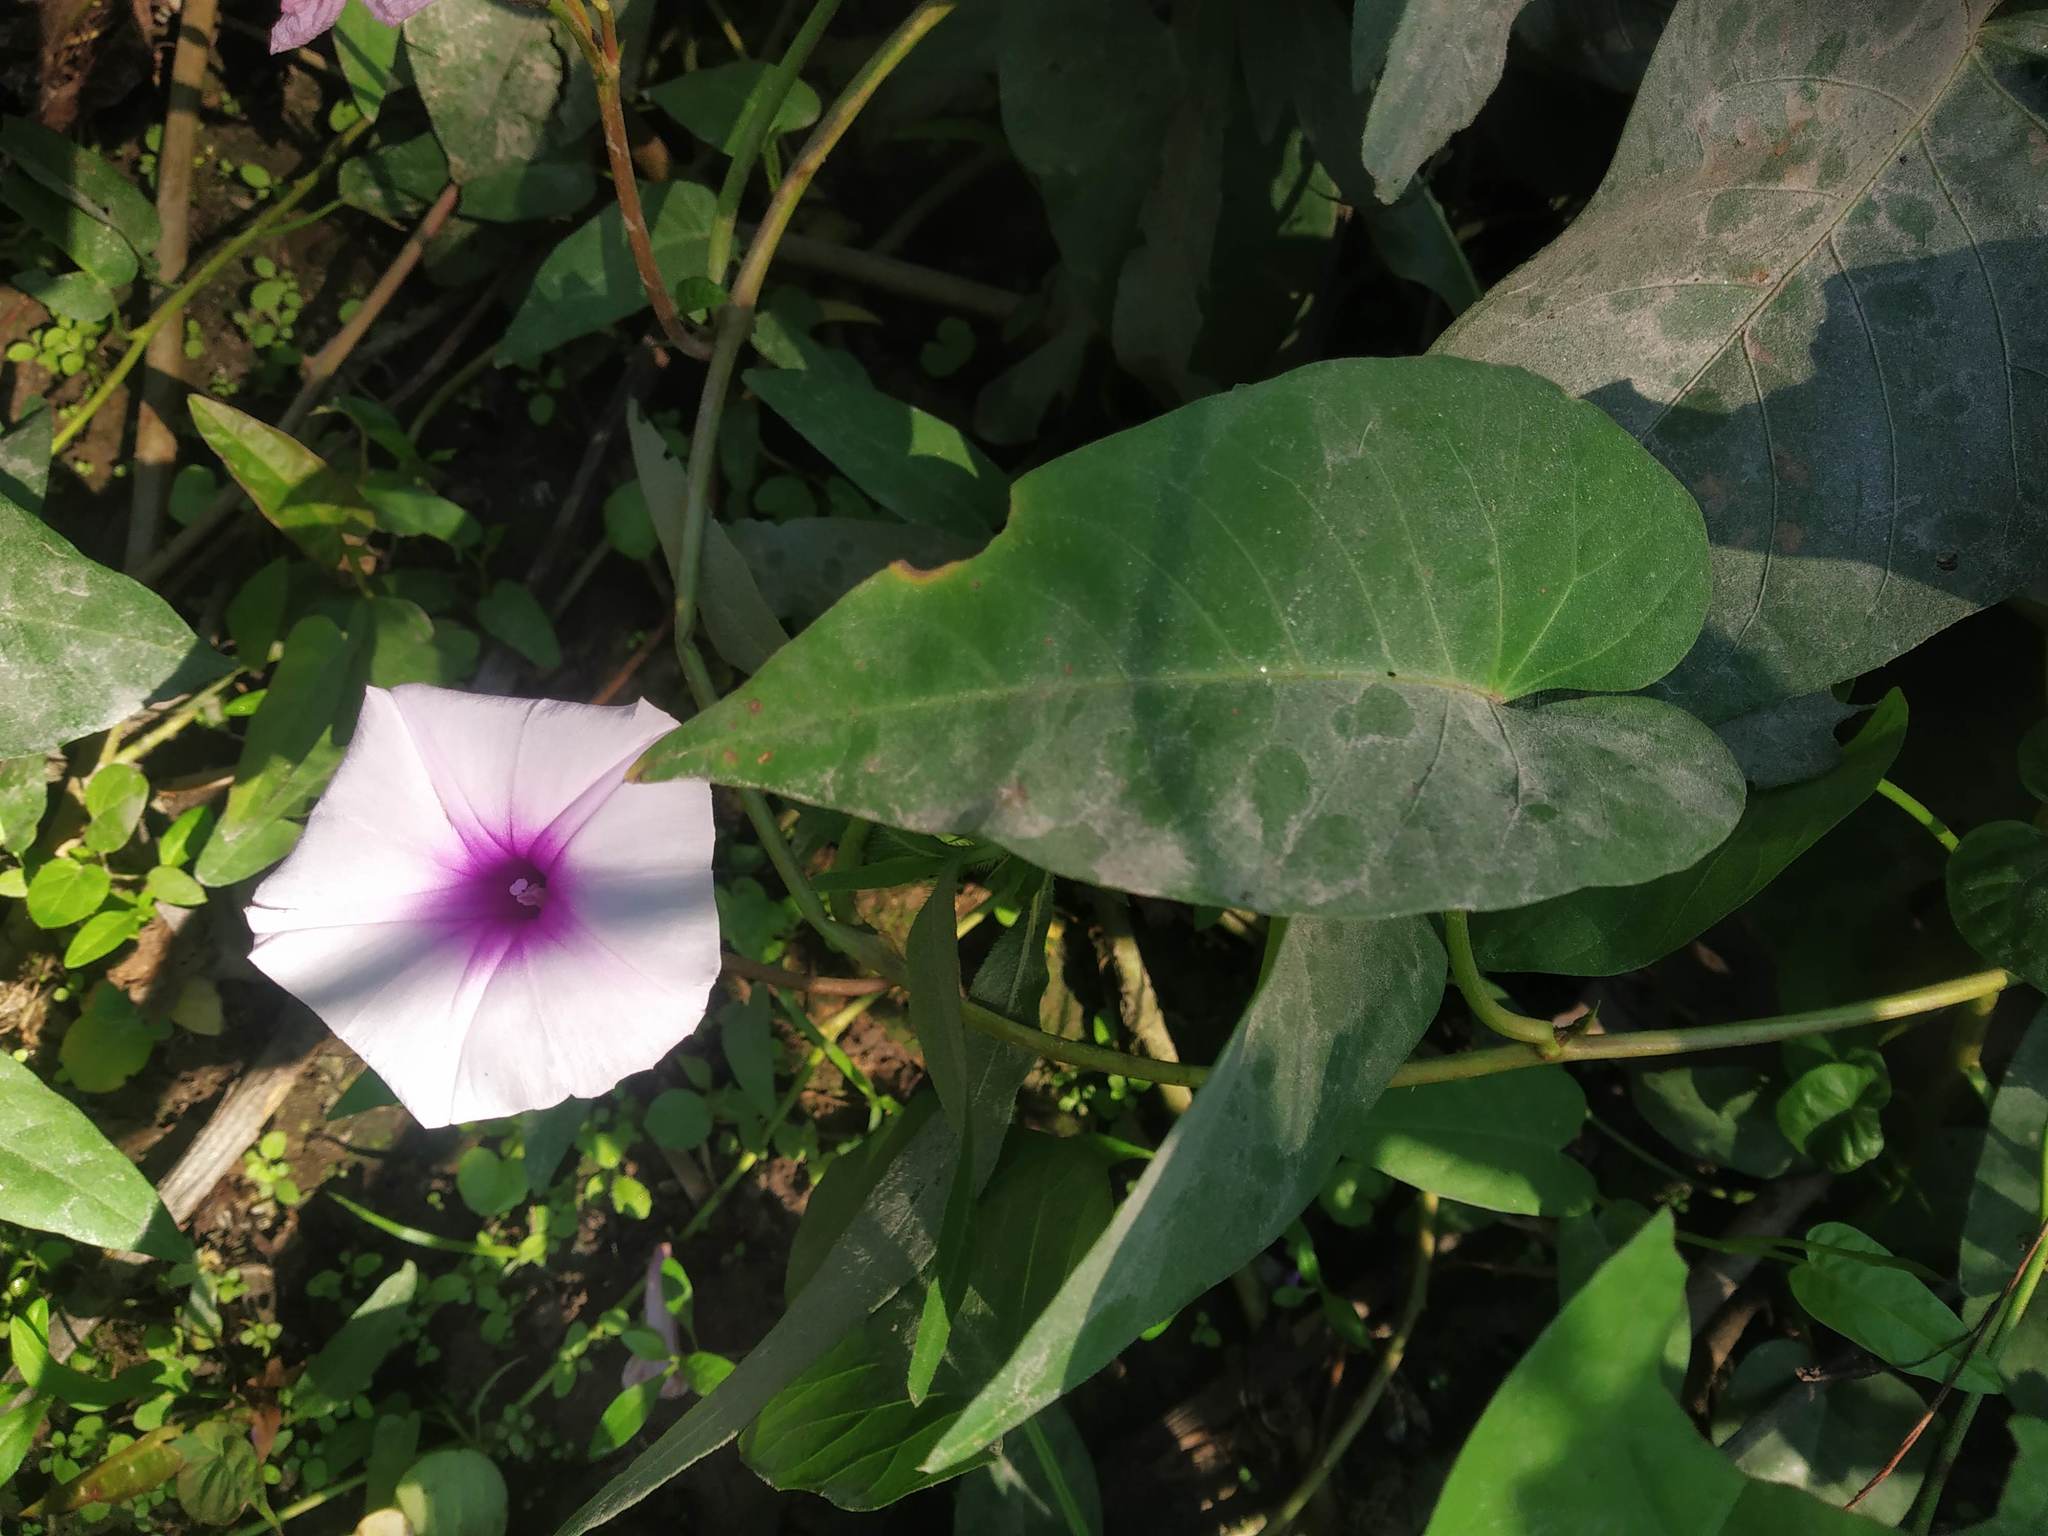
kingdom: Plantae
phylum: Tracheophyta
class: Magnoliopsida
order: Solanales
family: Convolvulaceae
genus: Ipomoea
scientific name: Ipomoea aquatica
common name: Swamp morning-glory
